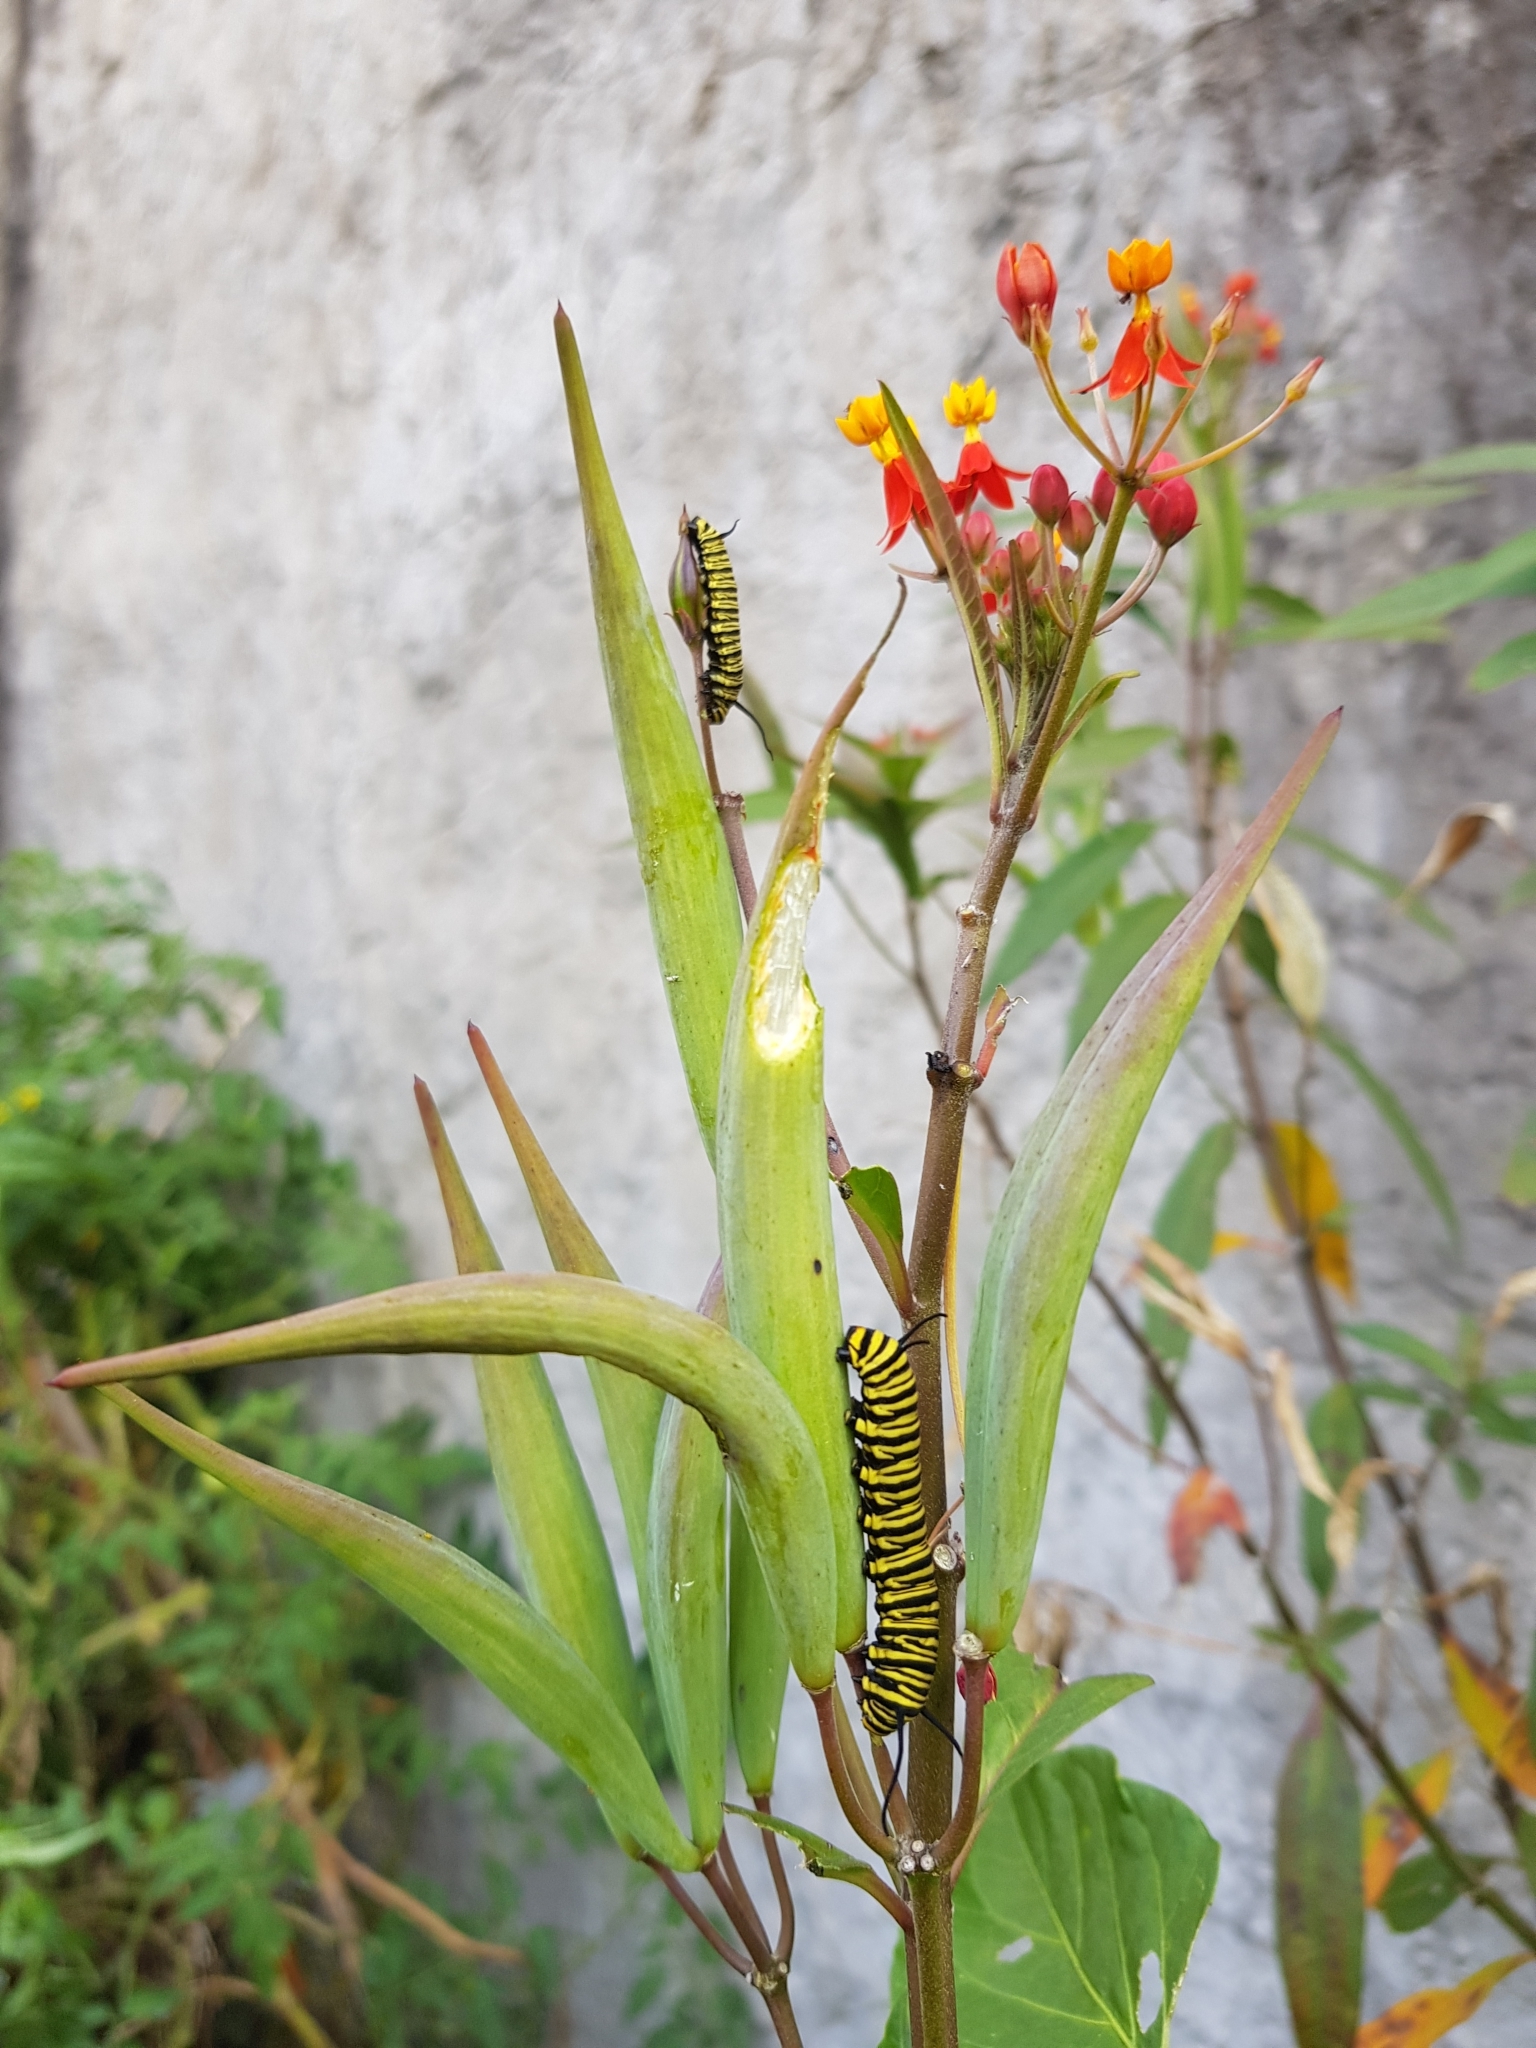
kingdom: Animalia
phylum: Arthropoda
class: Insecta
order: Lepidoptera
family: Nymphalidae
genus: Danaus
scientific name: Danaus erippus
